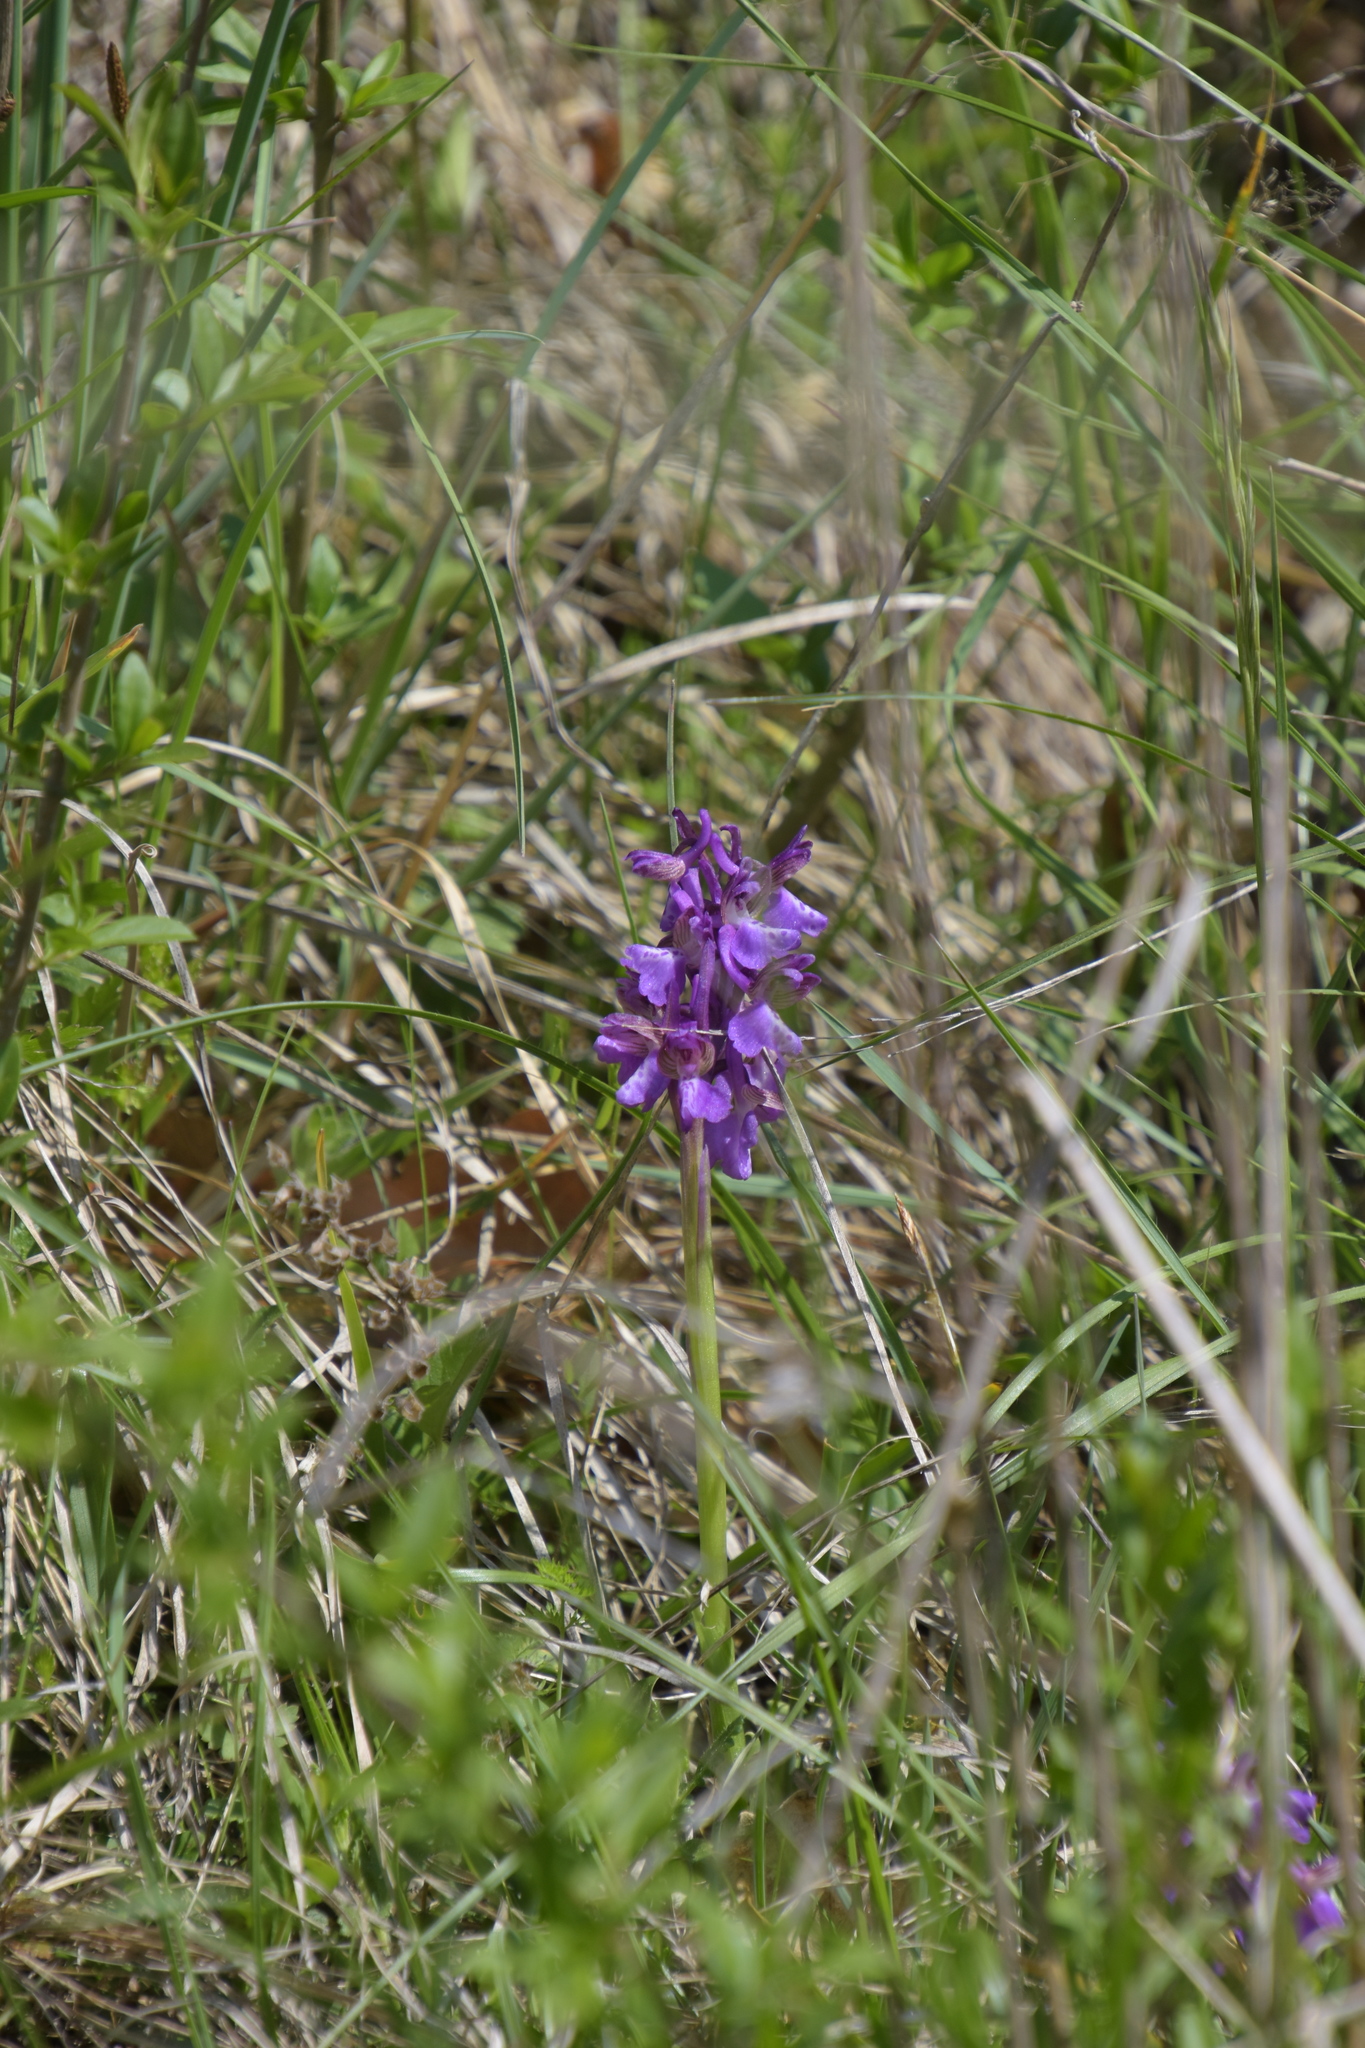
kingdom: Plantae
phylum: Tracheophyta
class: Liliopsida
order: Asparagales
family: Orchidaceae
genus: Anacamptis
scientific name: Anacamptis morio
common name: Green-winged orchid
